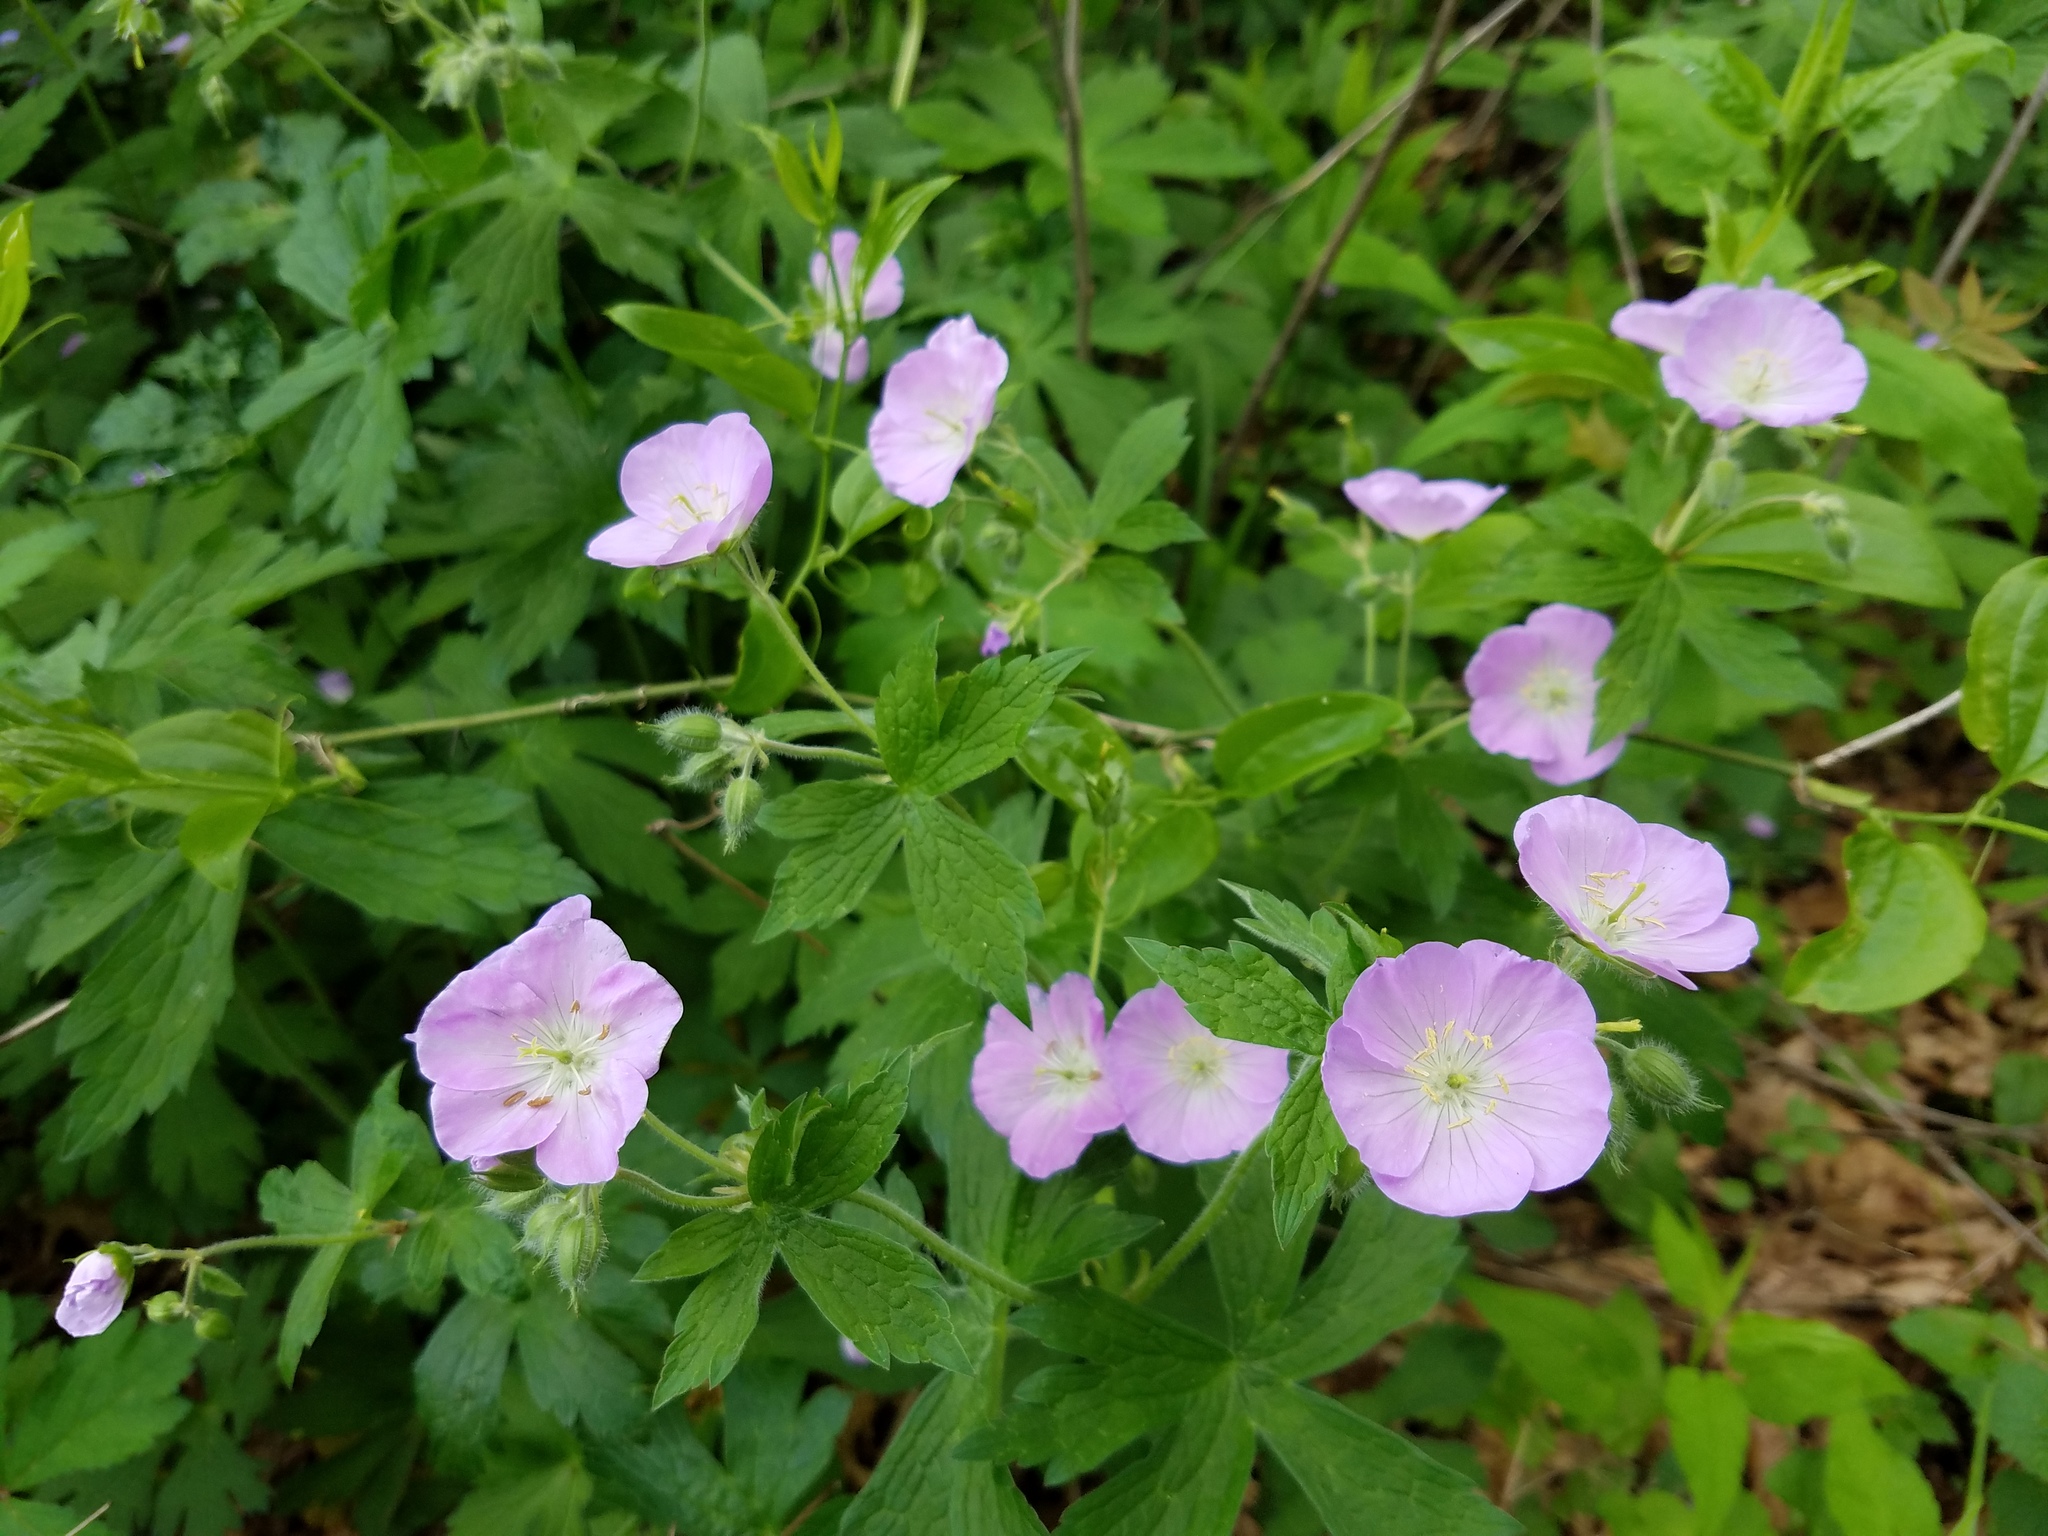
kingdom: Plantae
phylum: Tracheophyta
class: Magnoliopsida
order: Geraniales
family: Geraniaceae
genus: Geranium
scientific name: Geranium maculatum
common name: Spotted geranium
